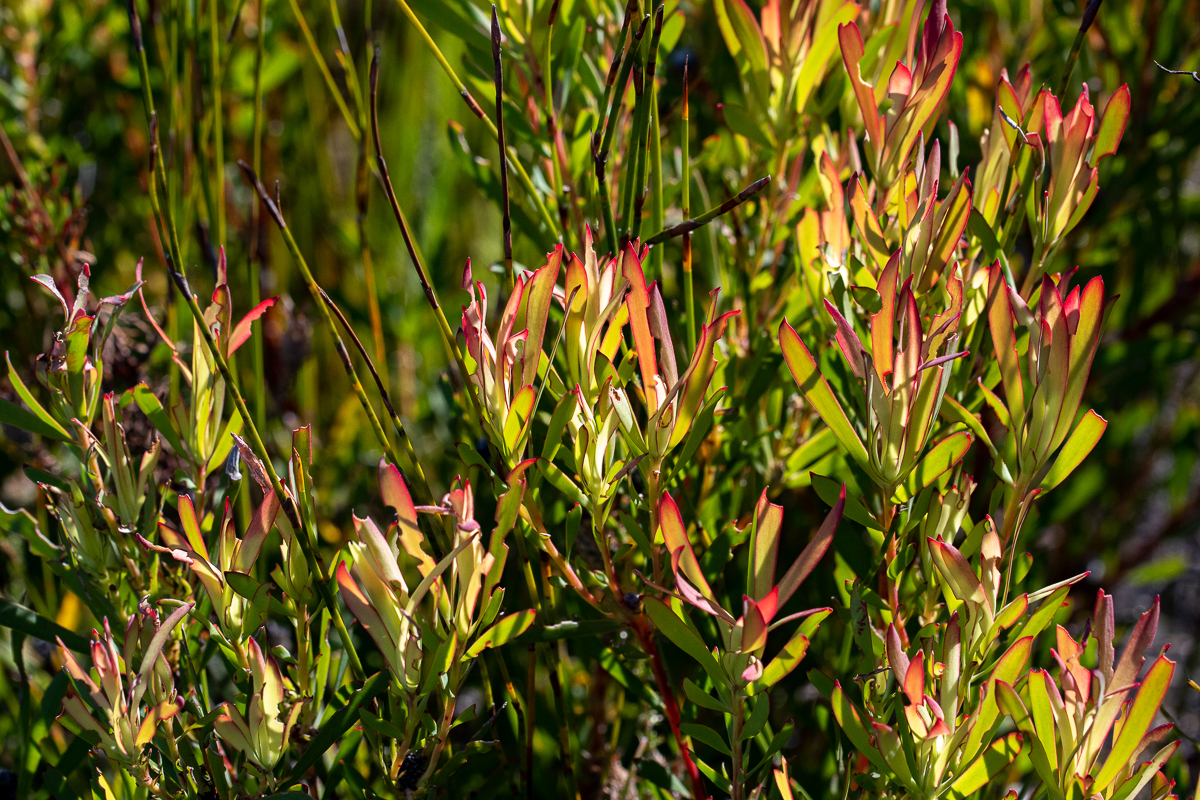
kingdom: Plantae
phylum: Tracheophyta
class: Magnoliopsida
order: Proteales
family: Proteaceae
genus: Leucadendron
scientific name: Leucadendron salignum
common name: Common sunshine conebush
